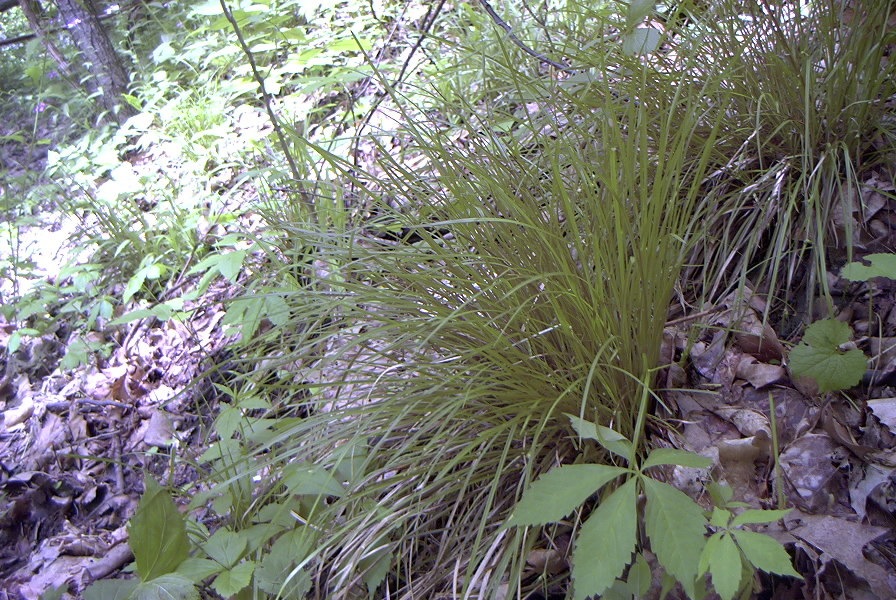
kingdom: Plantae
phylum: Tracheophyta
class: Liliopsida
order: Poales
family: Cyperaceae
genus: Carex
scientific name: Carex jamesii
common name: Grass sedge
